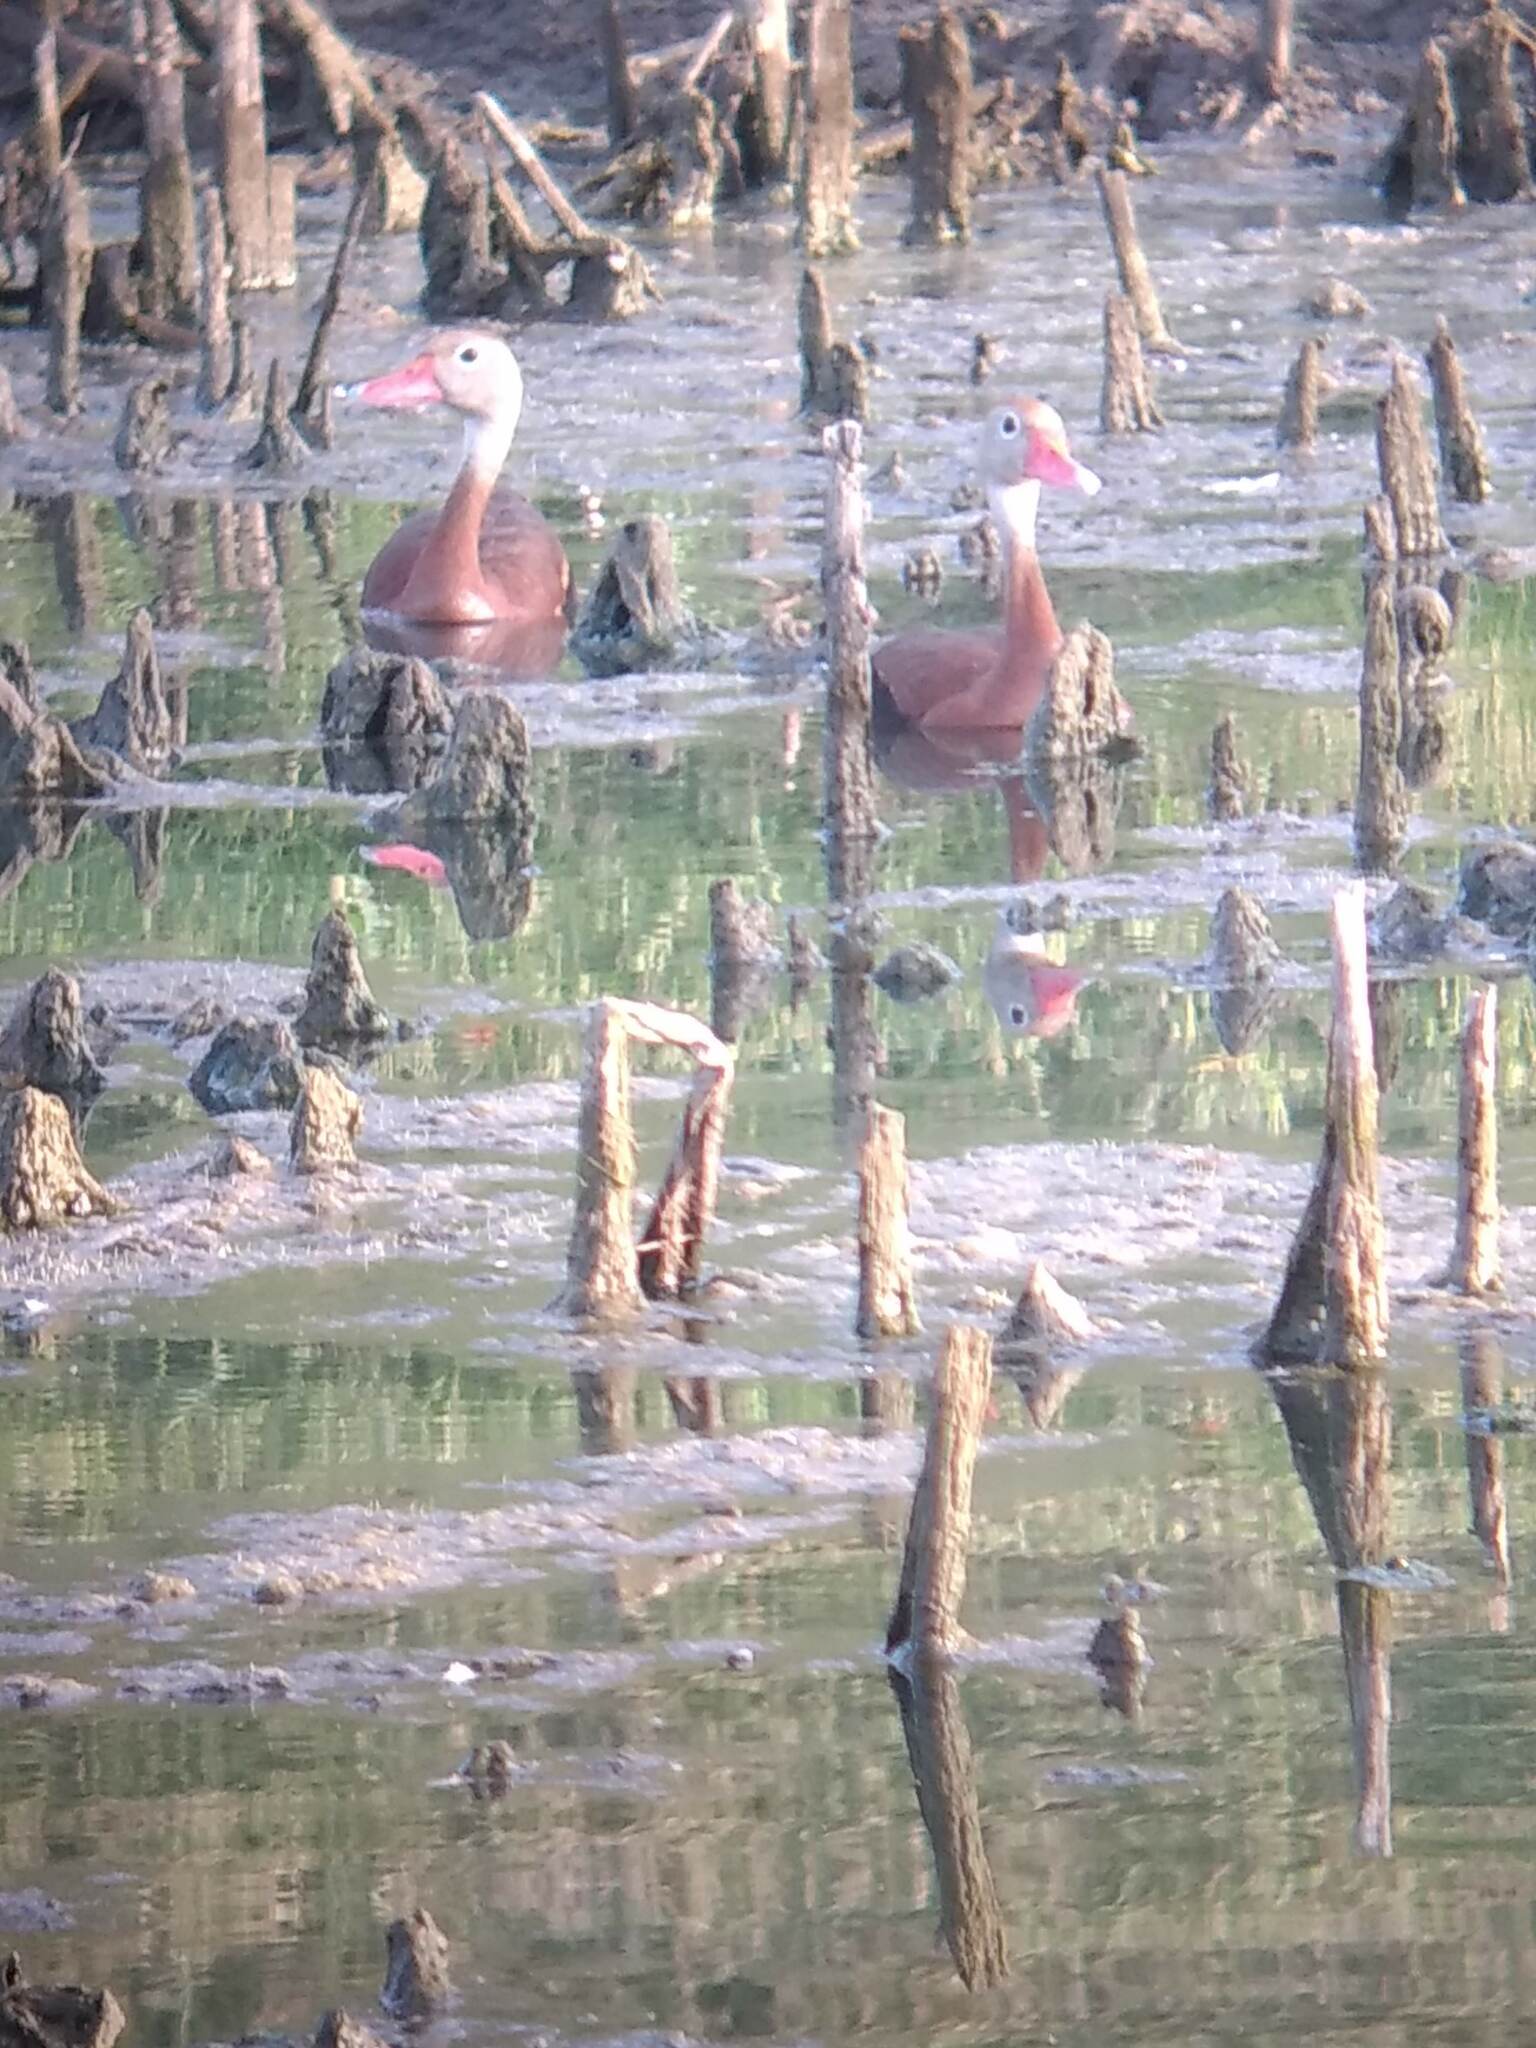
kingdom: Animalia
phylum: Chordata
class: Aves
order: Anseriformes
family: Anatidae
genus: Dendrocygna
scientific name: Dendrocygna autumnalis
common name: Black-bellied whistling duck
